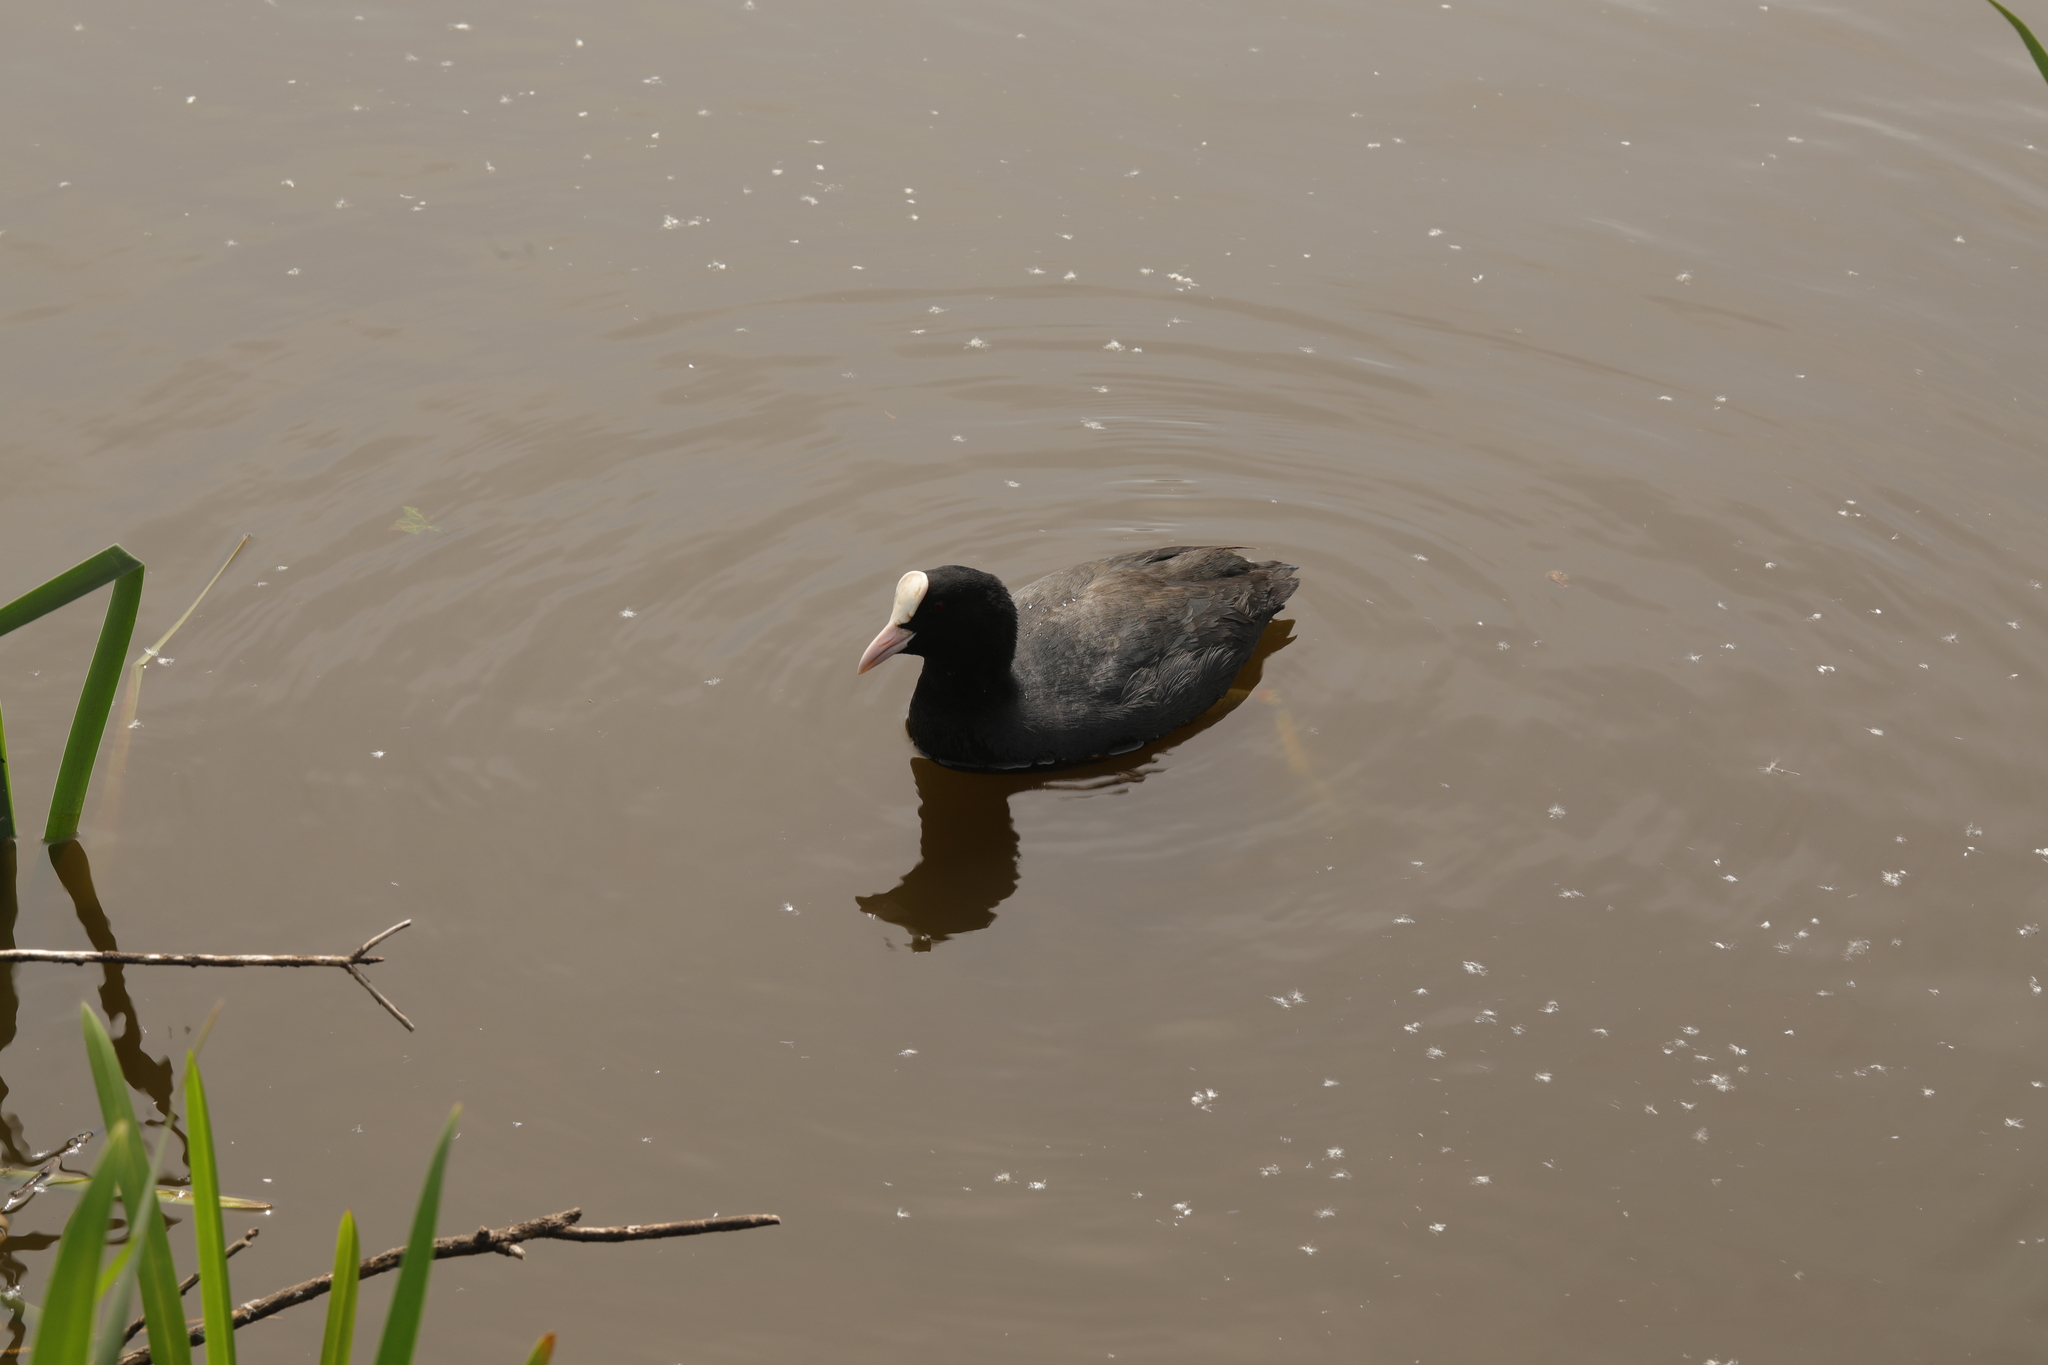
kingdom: Animalia
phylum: Chordata
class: Aves
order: Gruiformes
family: Rallidae
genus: Fulica
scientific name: Fulica atra
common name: Eurasian coot
